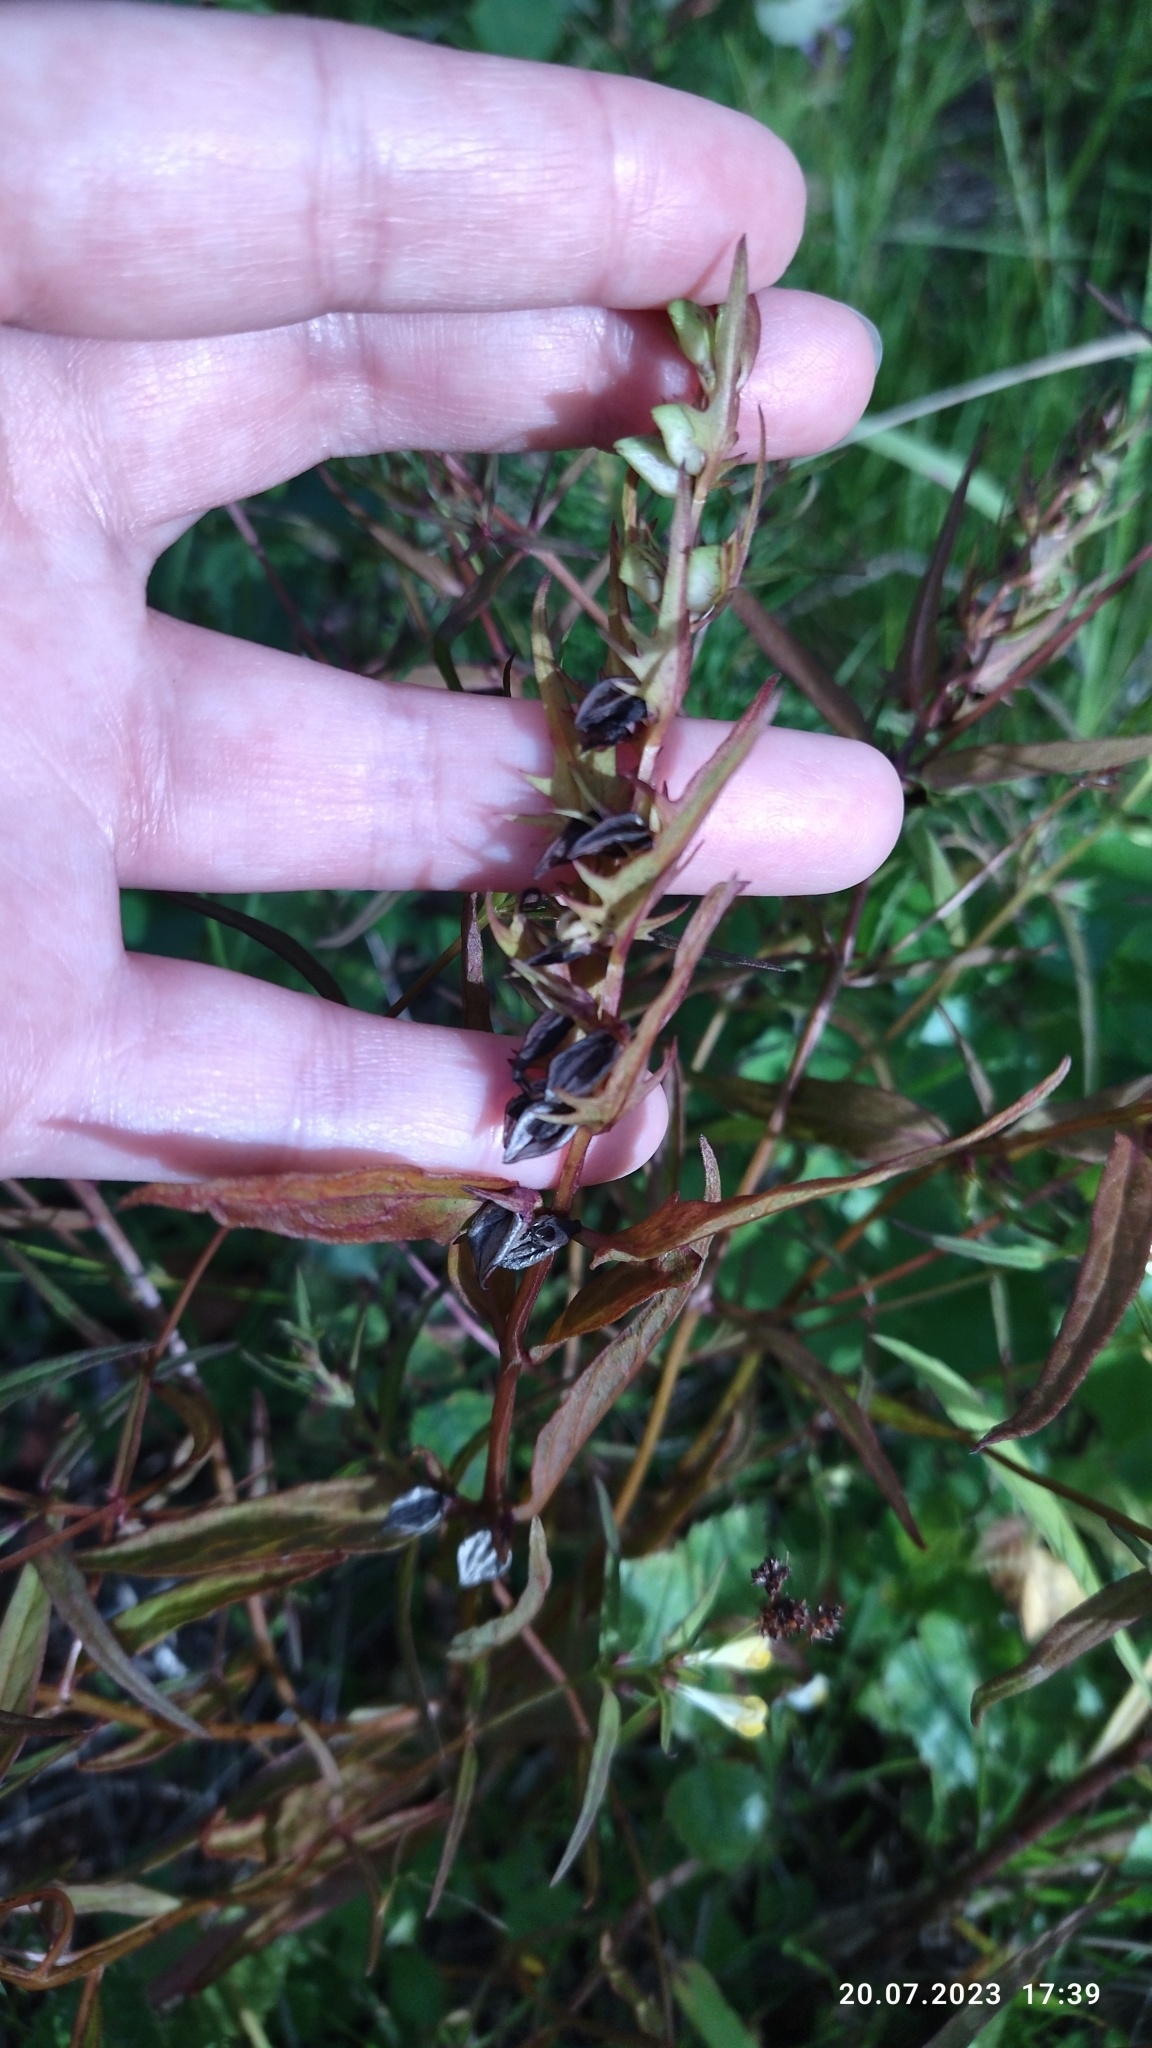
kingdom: Plantae
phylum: Tracheophyta
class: Magnoliopsida
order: Lamiales
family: Orobanchaceae
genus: Melampyrum
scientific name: Melampyrum pratense
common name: Common cow-wheat
